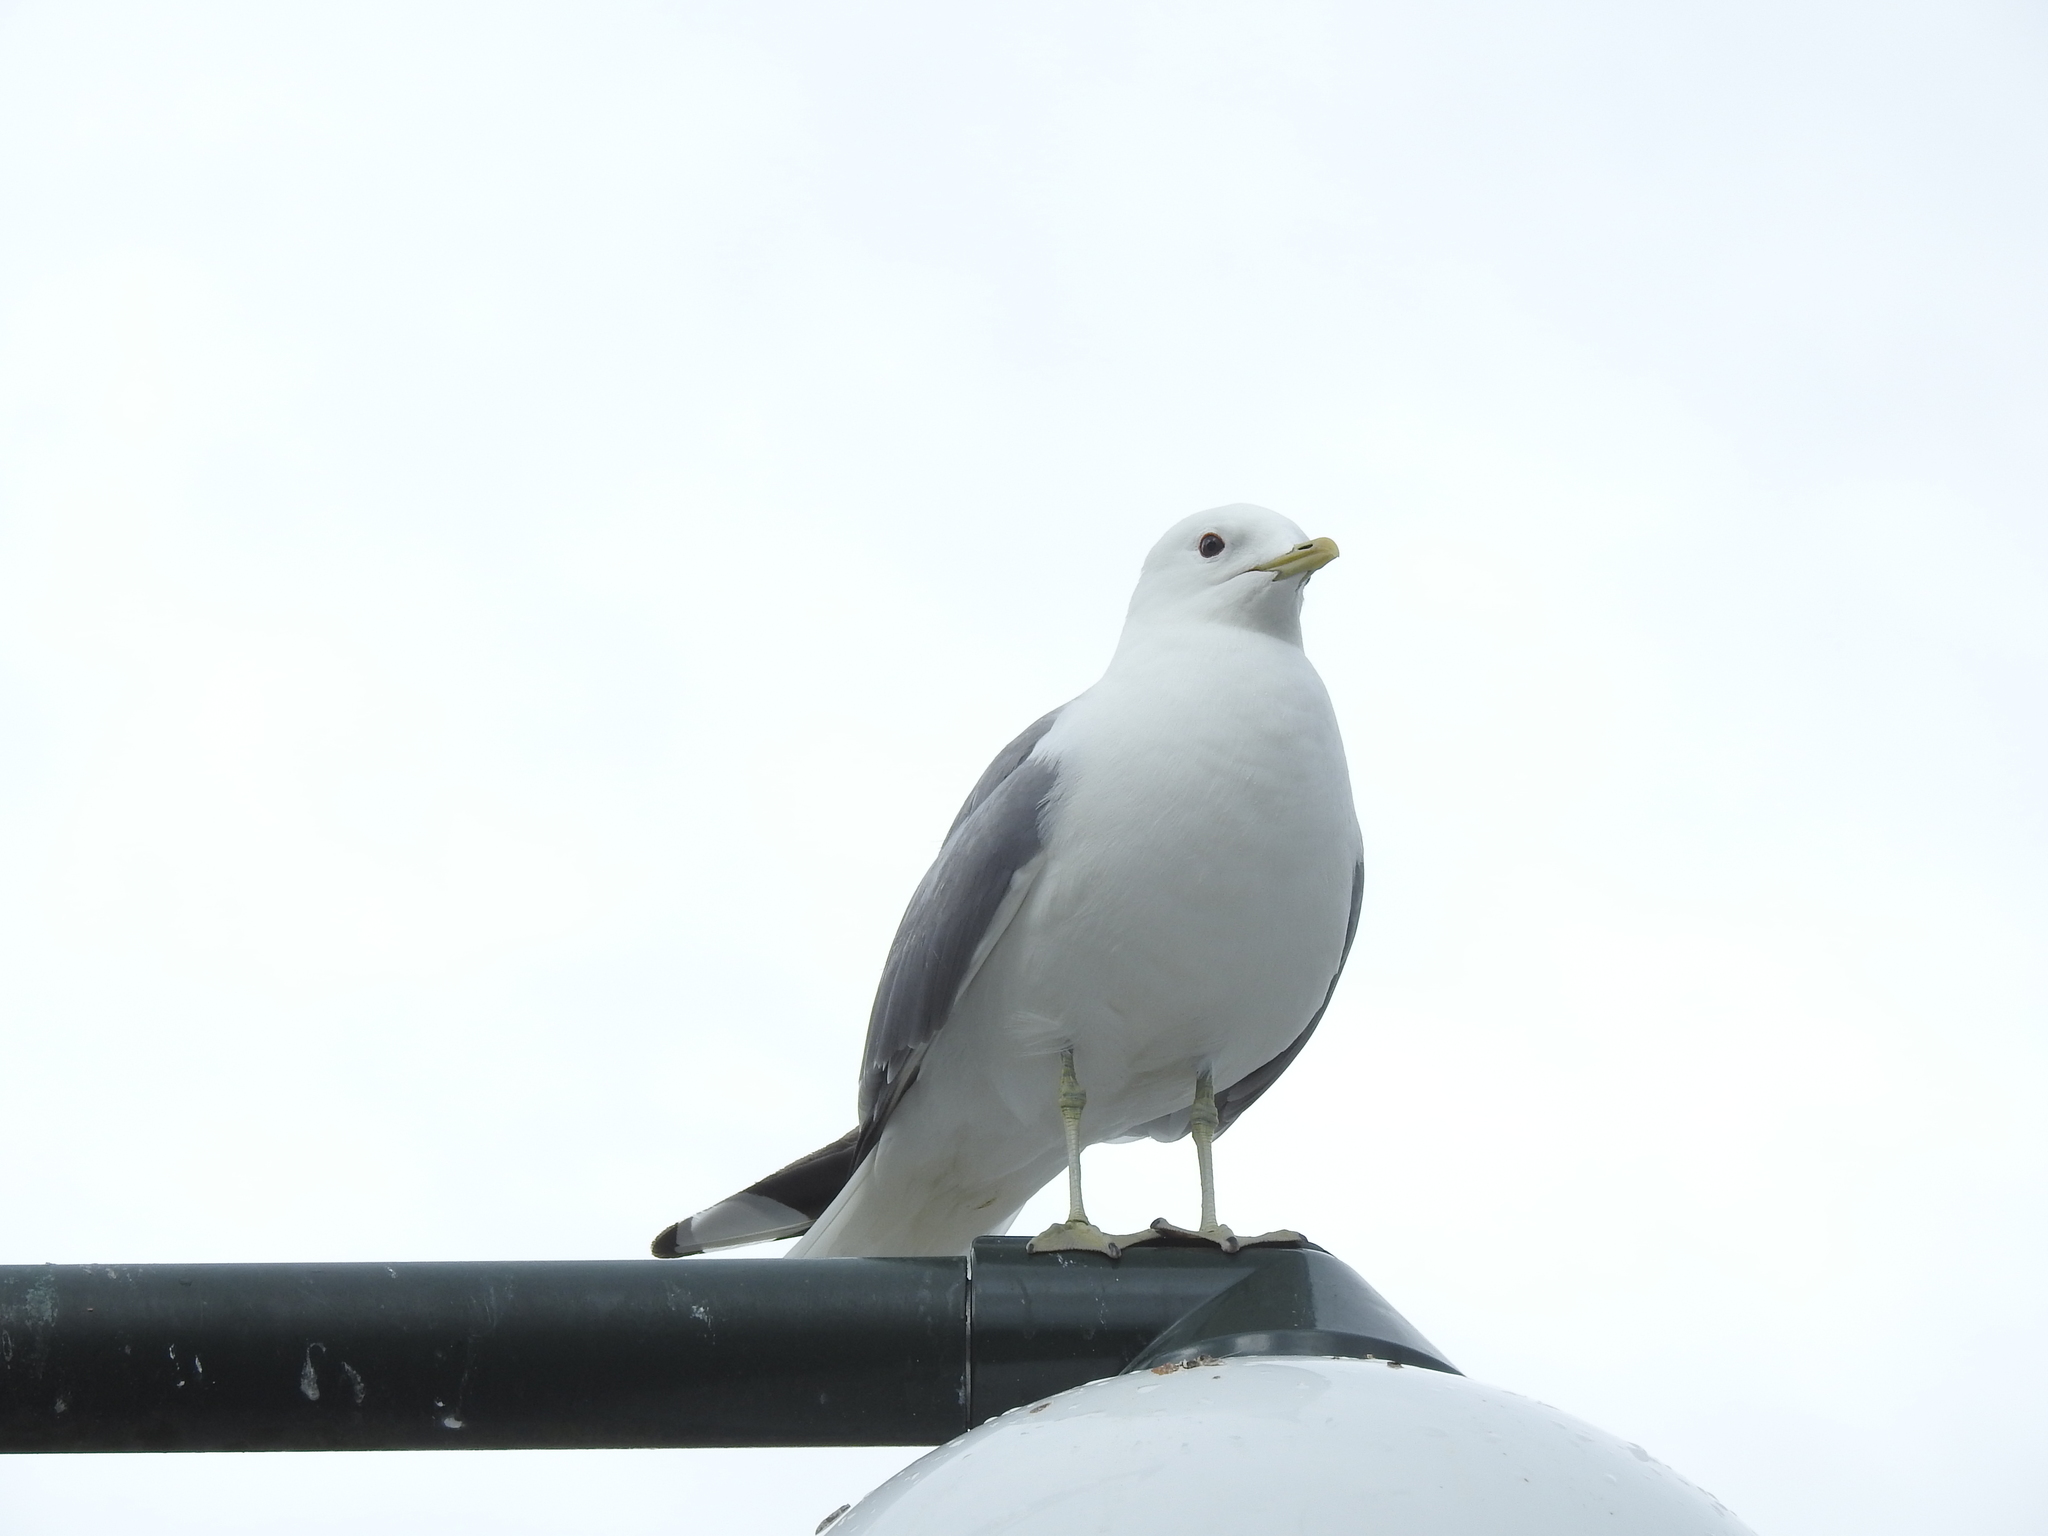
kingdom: Animalia
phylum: Chordata
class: Aves
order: Charadriiformes
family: Laridae
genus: Larus
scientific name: Larus canus
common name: Mew gull
